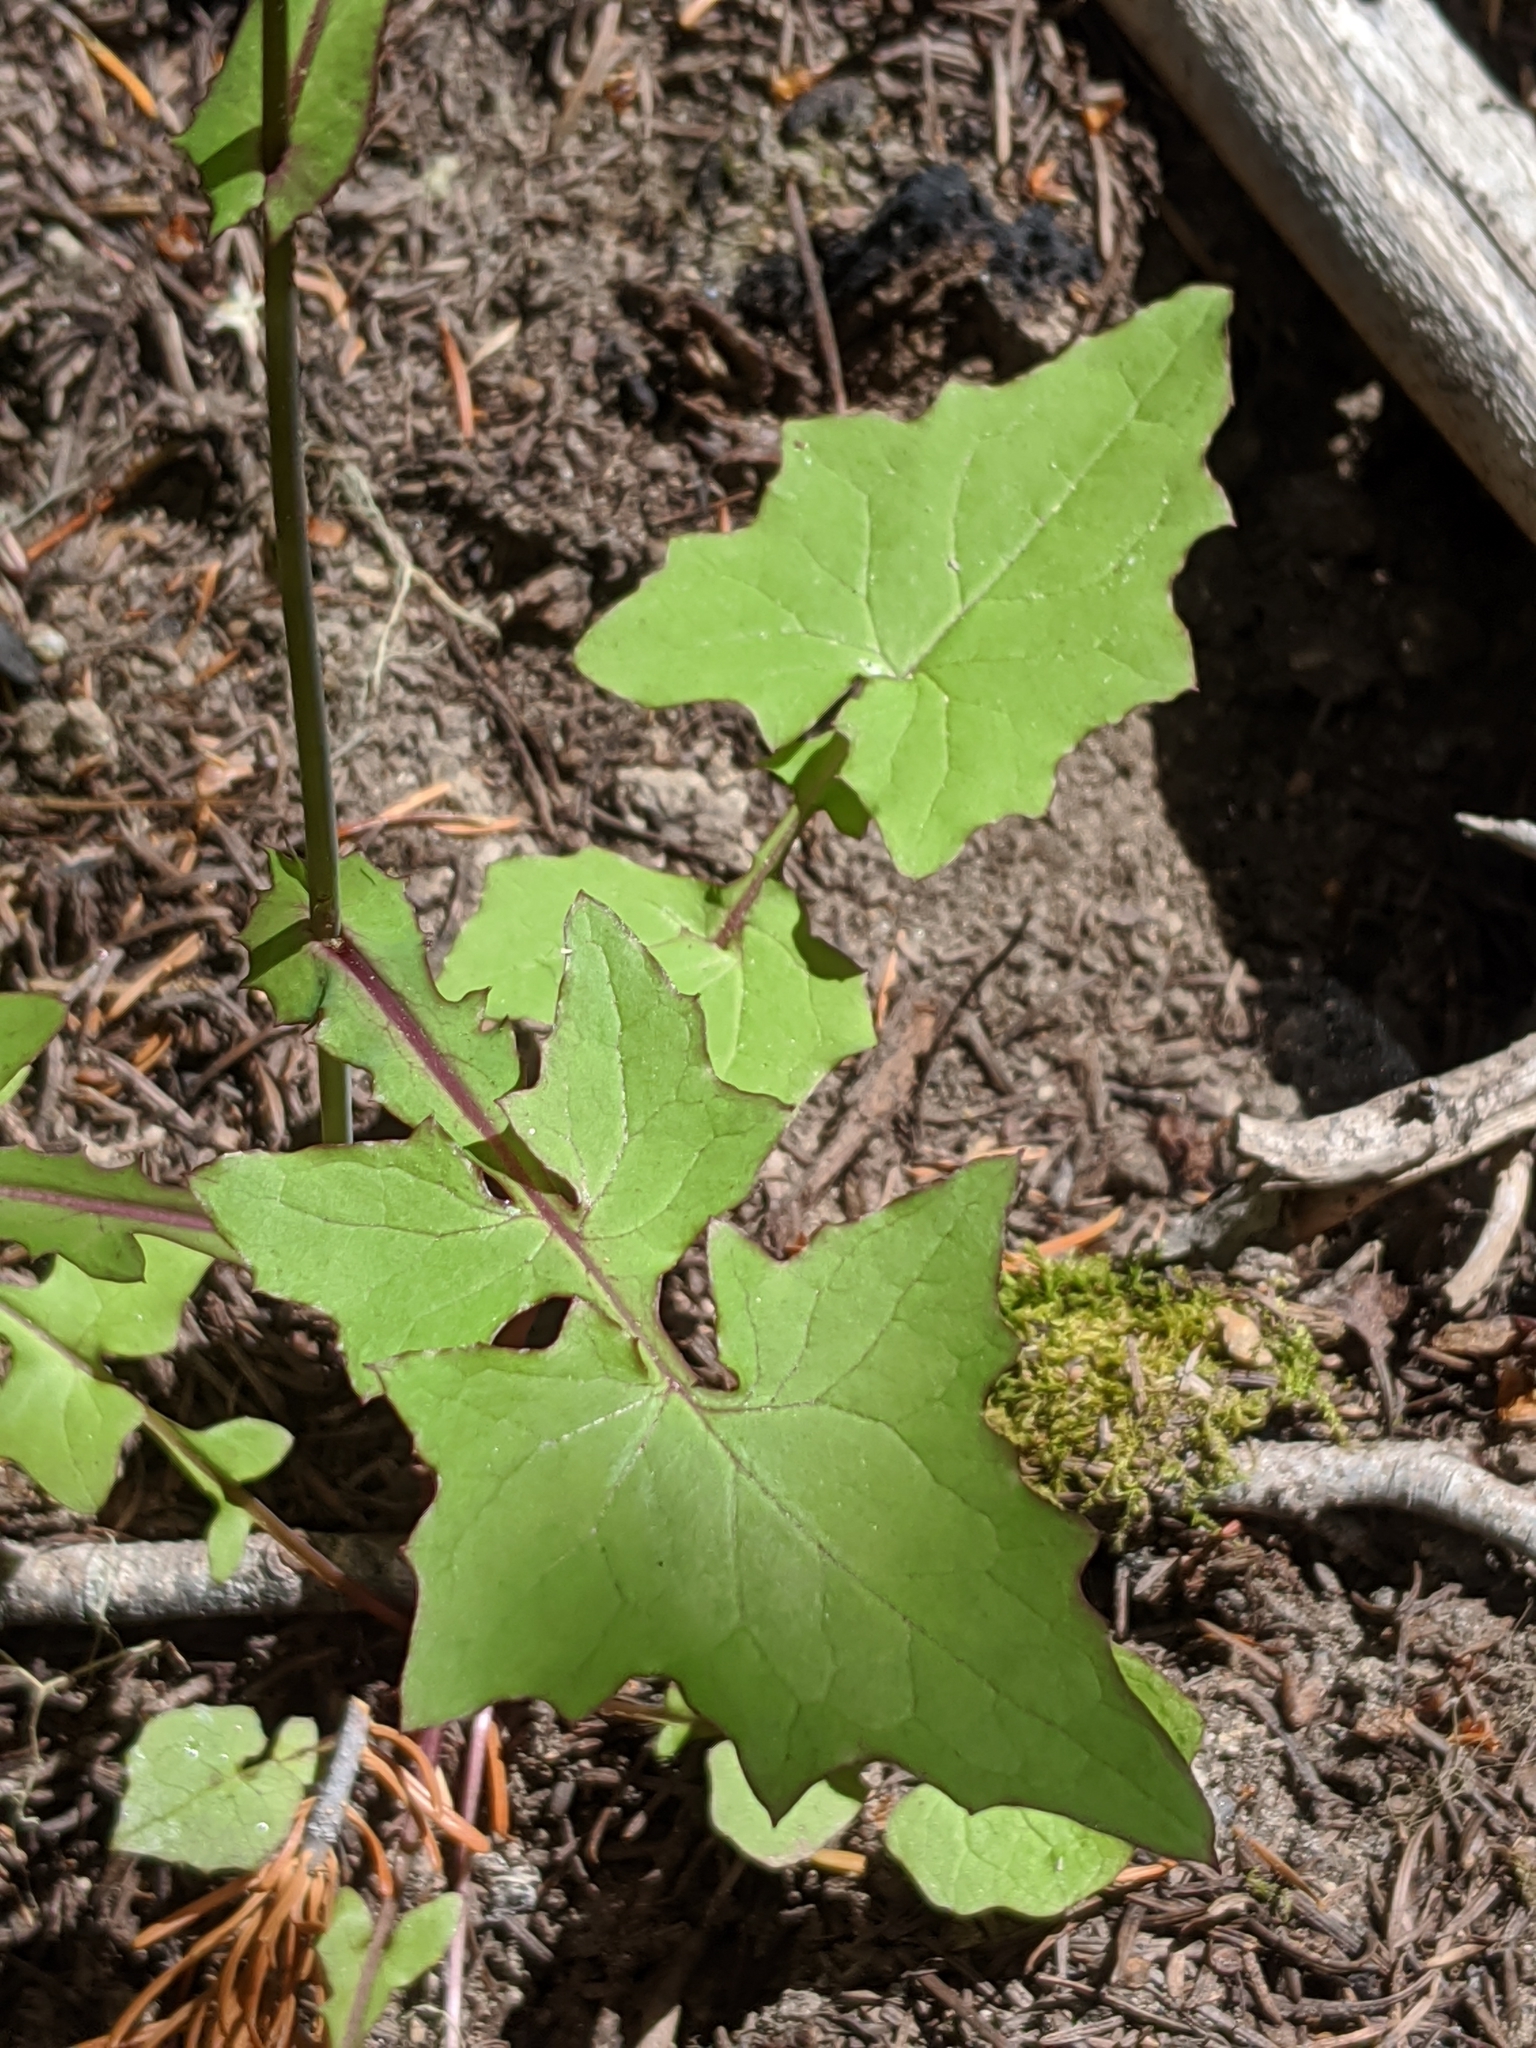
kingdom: Plantae
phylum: Tracheophyta
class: Magnoliopsida
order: Asterales
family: Asteraceae
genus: Mycelis
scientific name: Mycelis muralis
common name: Wall lettuce
